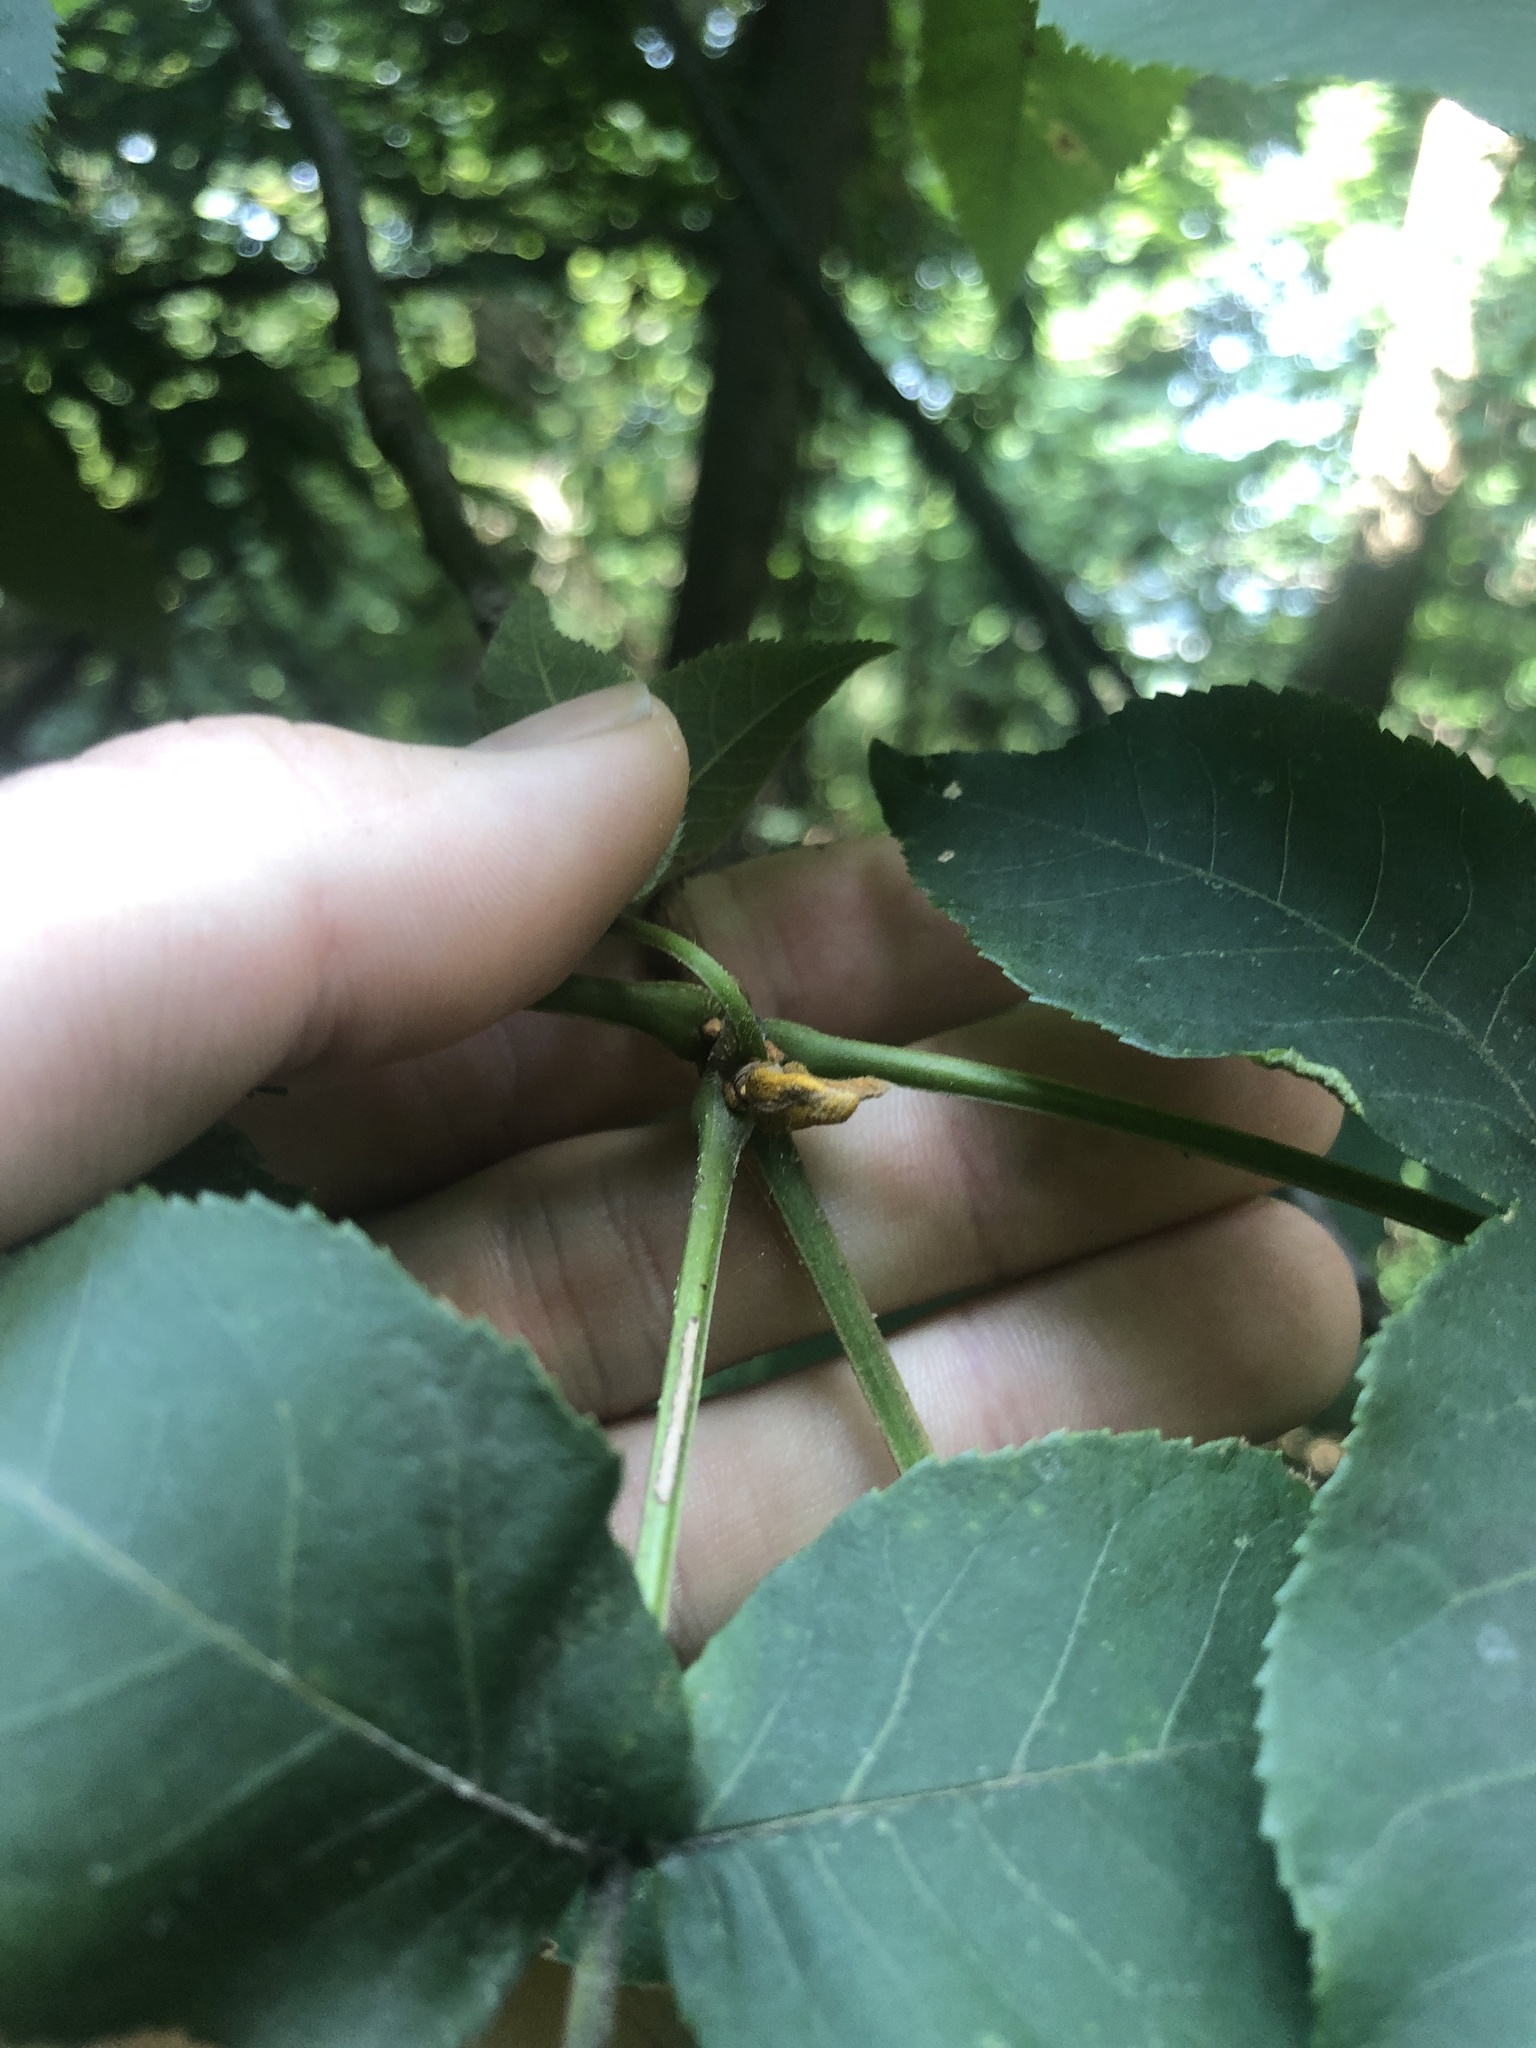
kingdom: Plantae
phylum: Tracheophyta
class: Magnoliopsida
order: Fagales
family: Juglandaceae
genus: Carya
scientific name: Carya cordiformis
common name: Bitternut hickory
